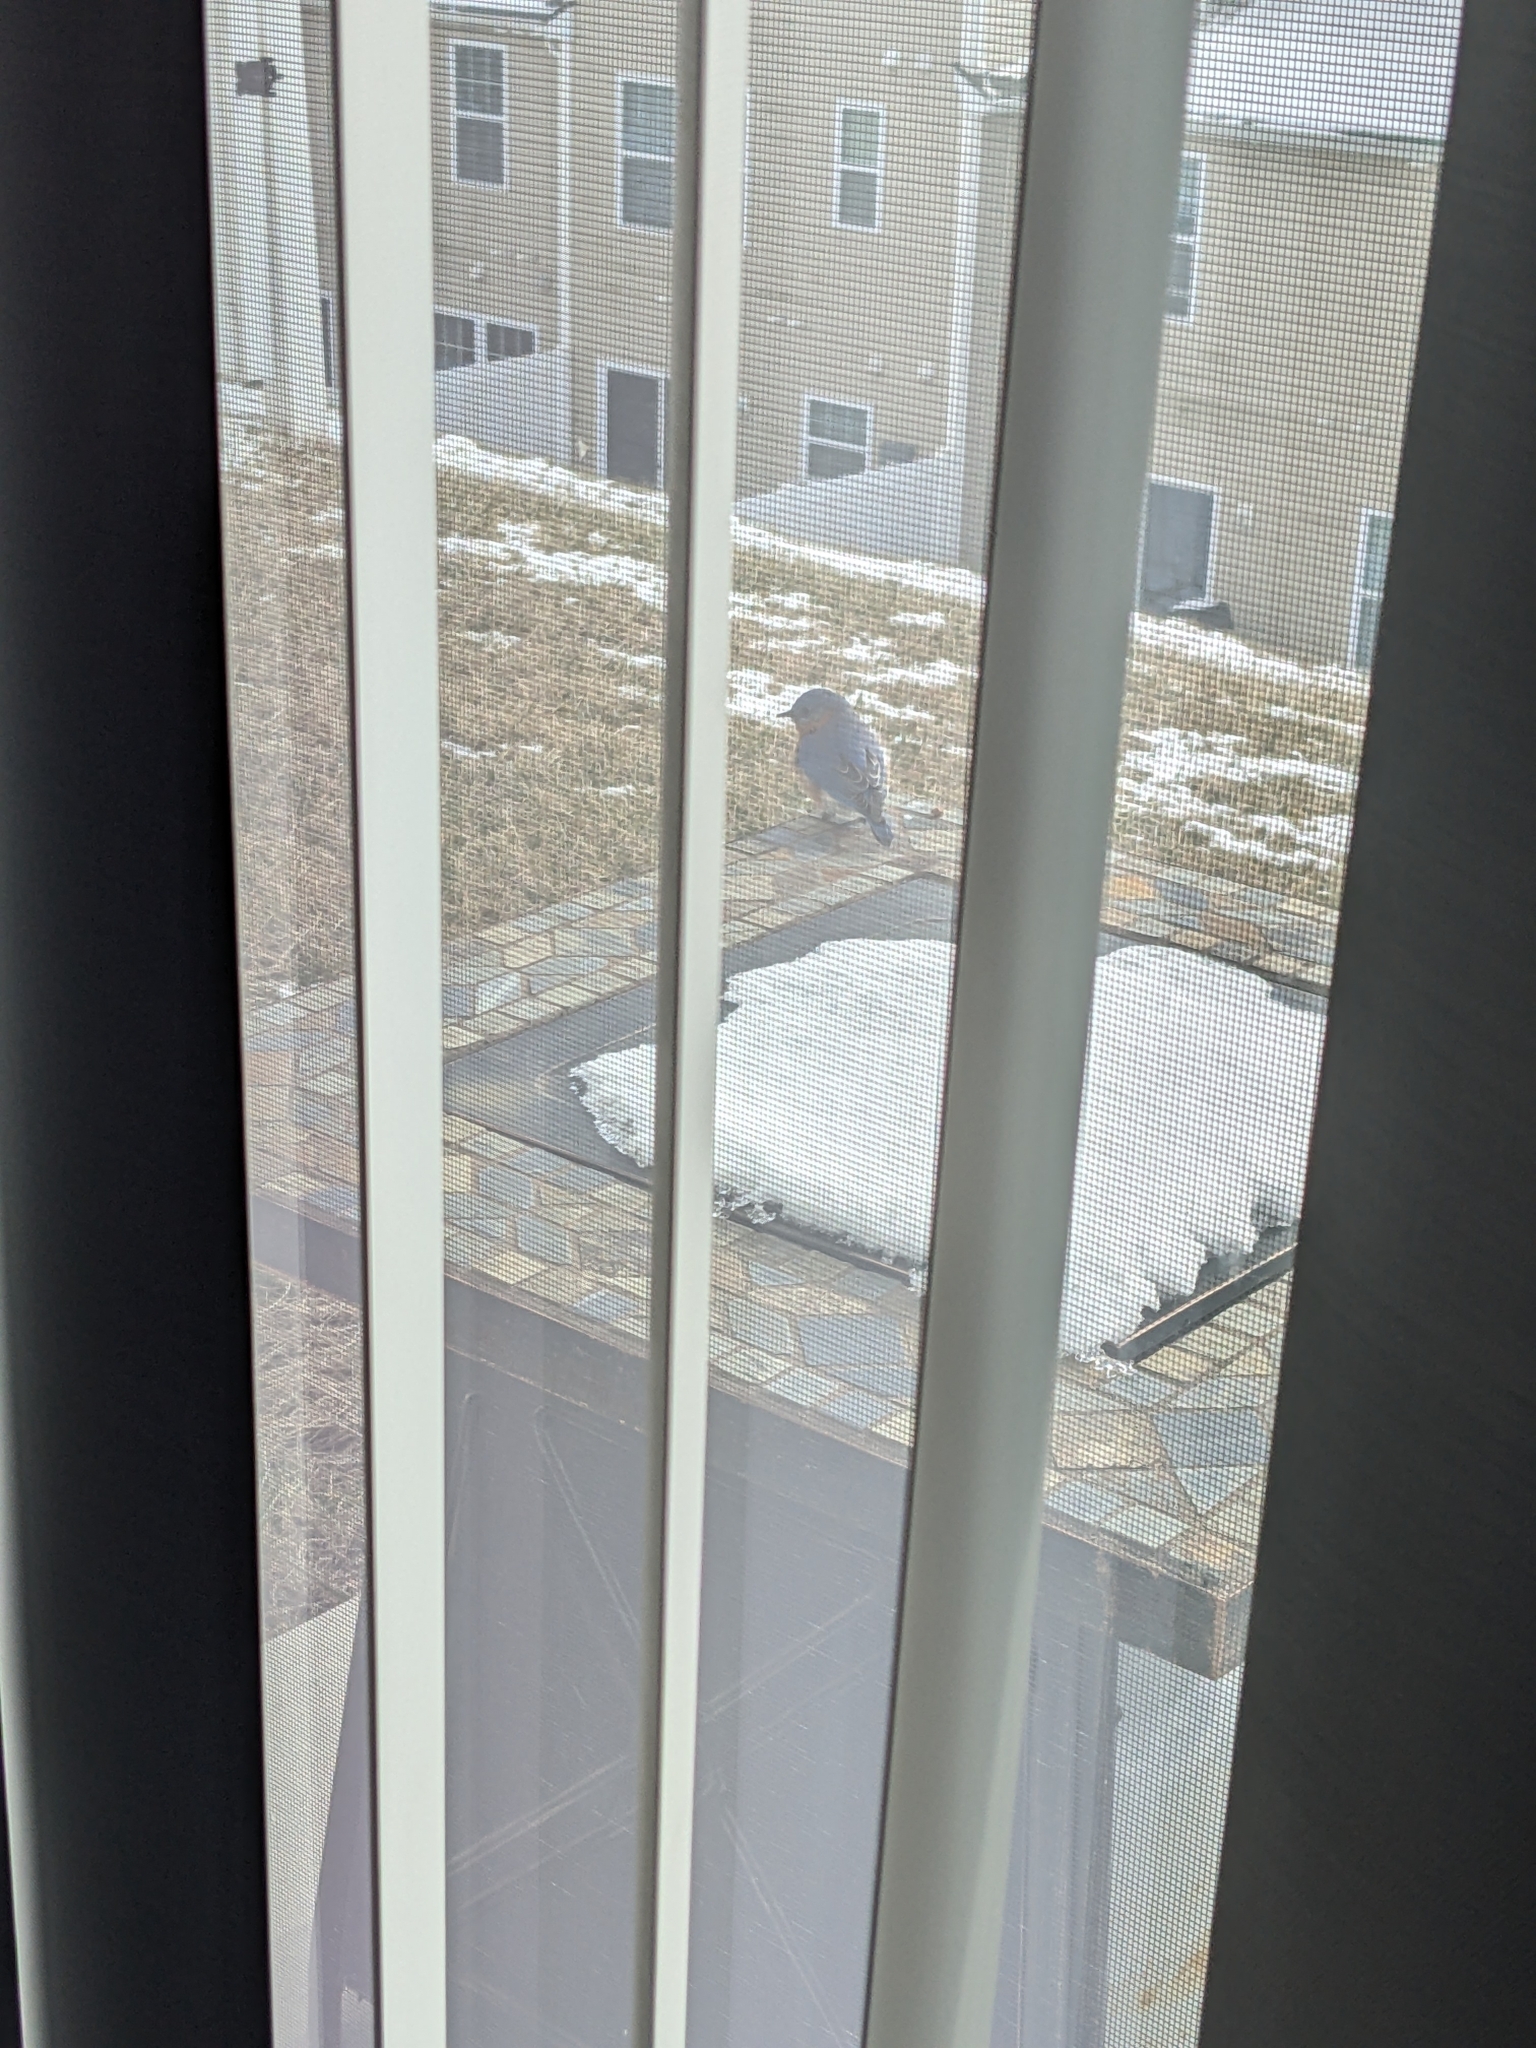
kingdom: Animalia
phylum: Chordata
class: Aves
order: Passeriformes
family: Turdidae
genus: Sialia
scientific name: Sialia sialis
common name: Eastern bluebird
